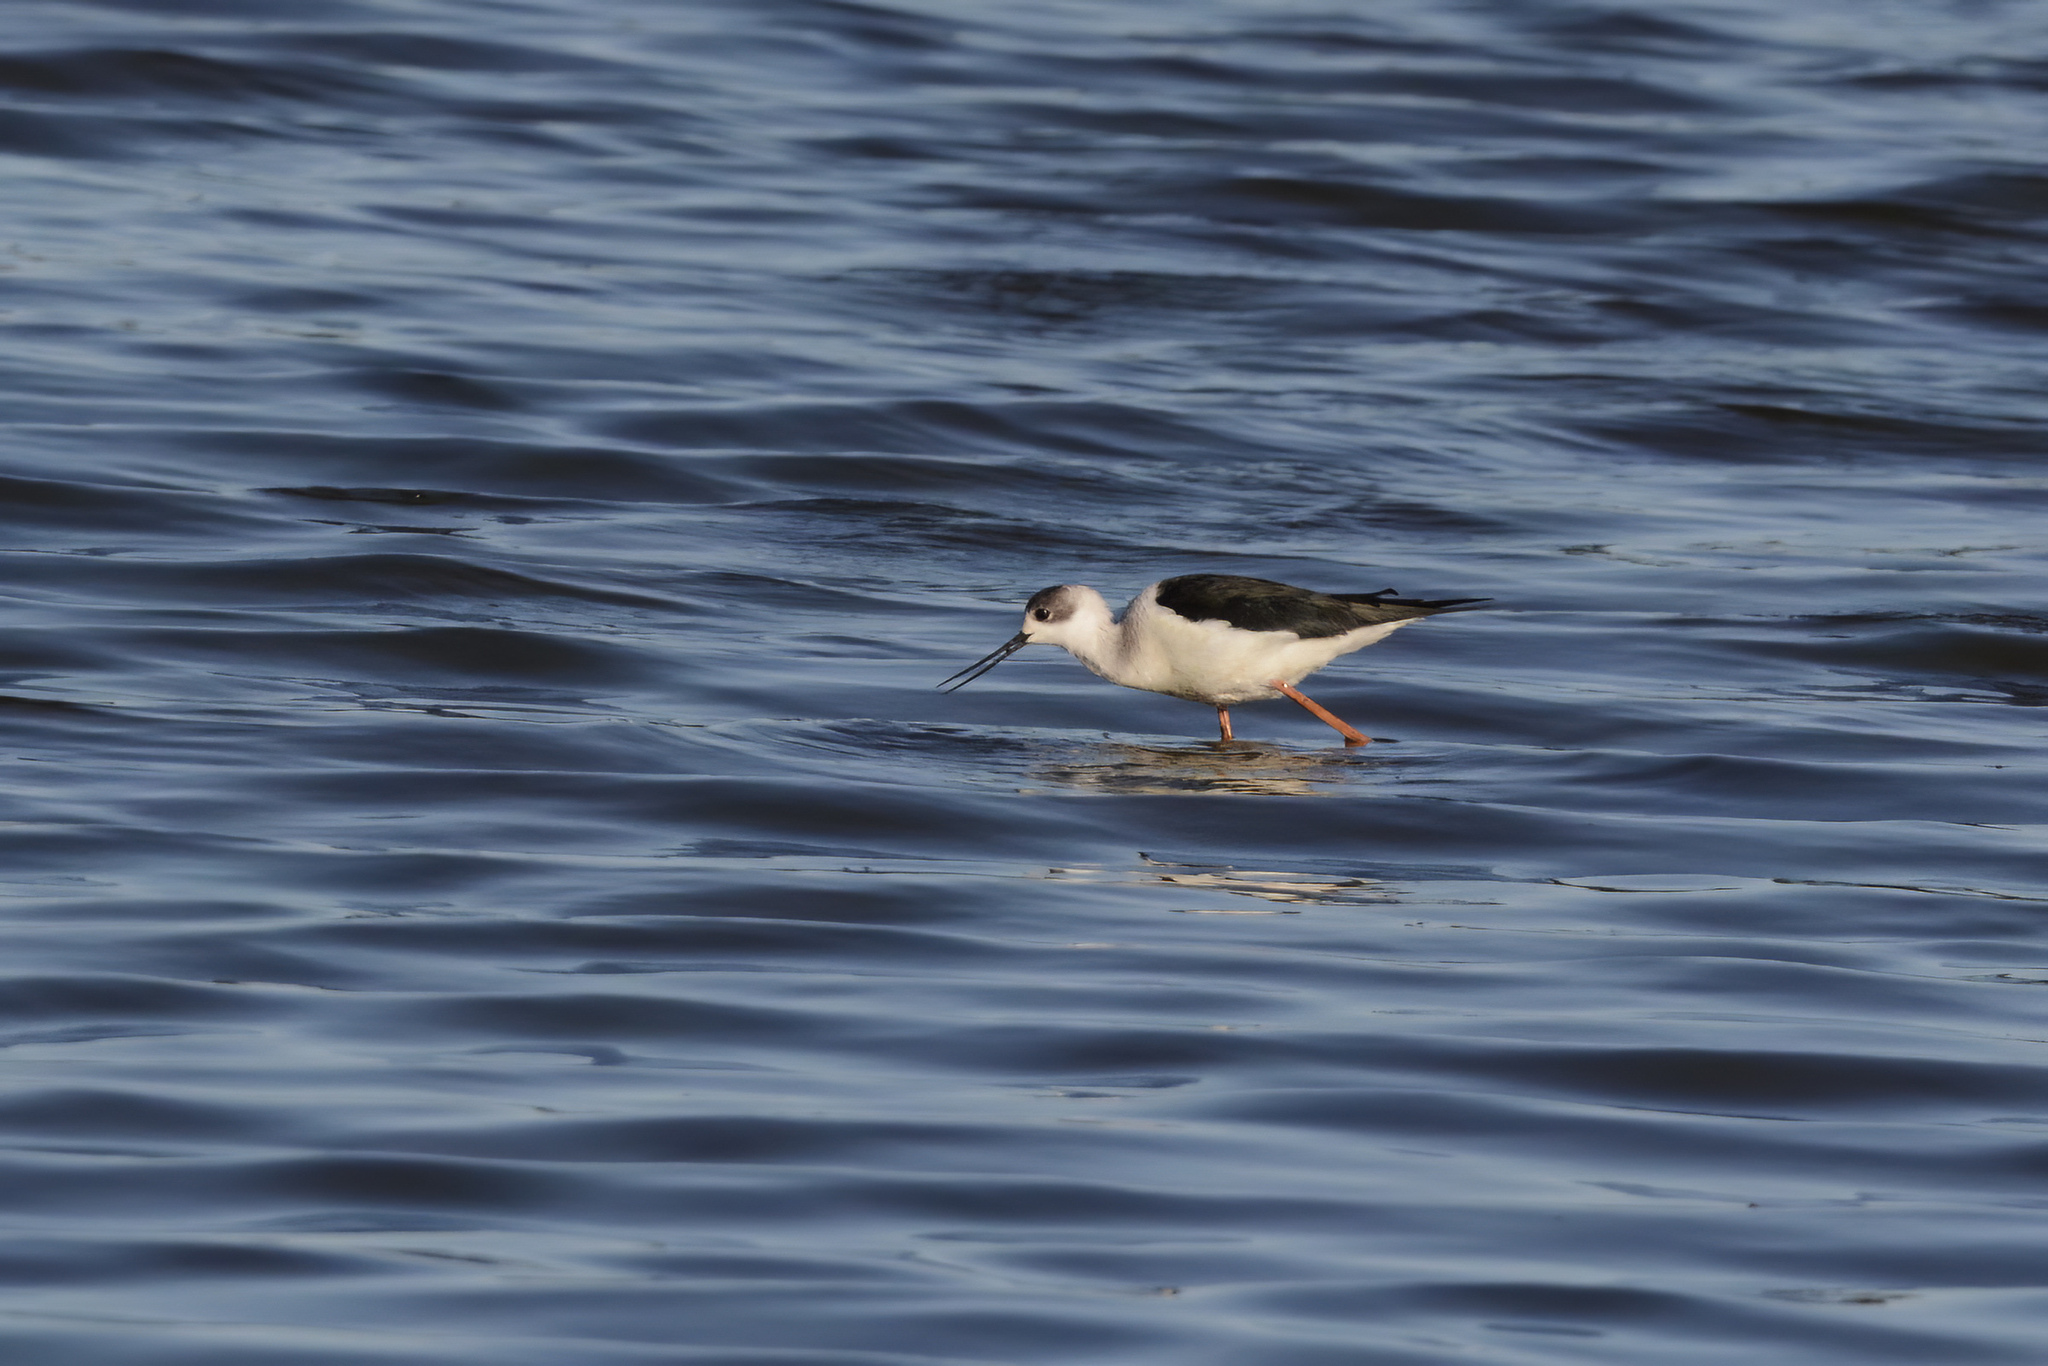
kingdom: Animalia
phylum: Chordata
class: Aves
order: Charadriiformes
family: Recurvirostridae
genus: Himantopus
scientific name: Himantopus leucocephalus
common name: White-headed stilt
